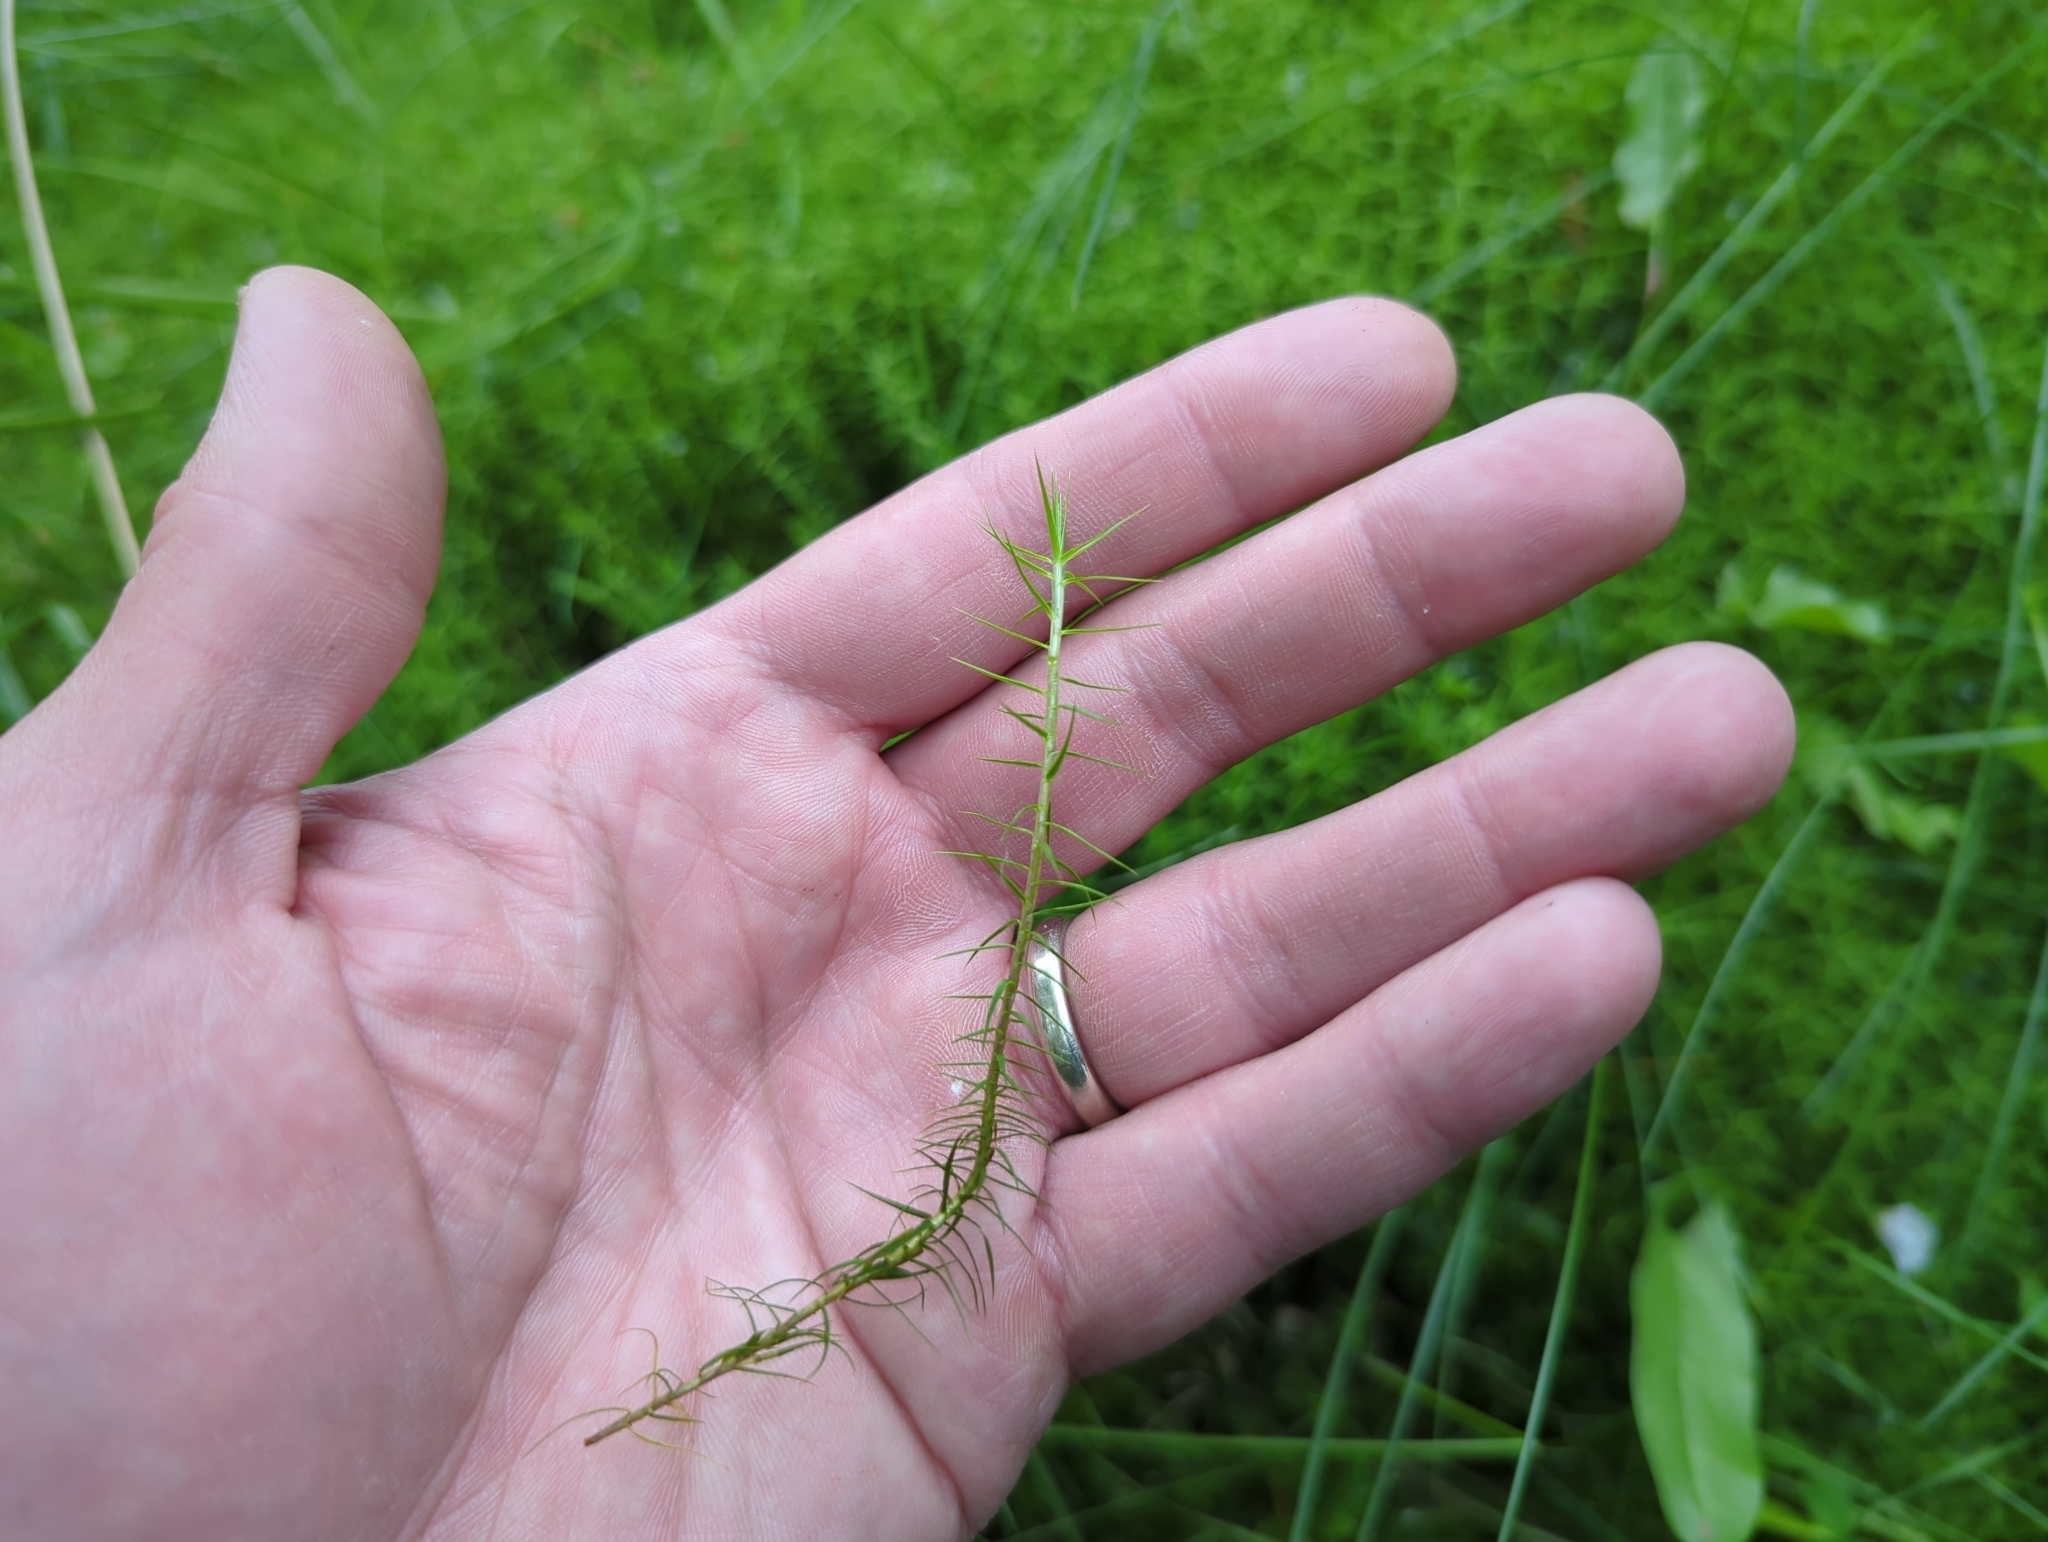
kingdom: Plantae
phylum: Bryophyta
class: Polytrichopsida
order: Polytrichales
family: Polytrichaceae
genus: Polytrichum
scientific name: Polytrichum commune
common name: Common haircap
